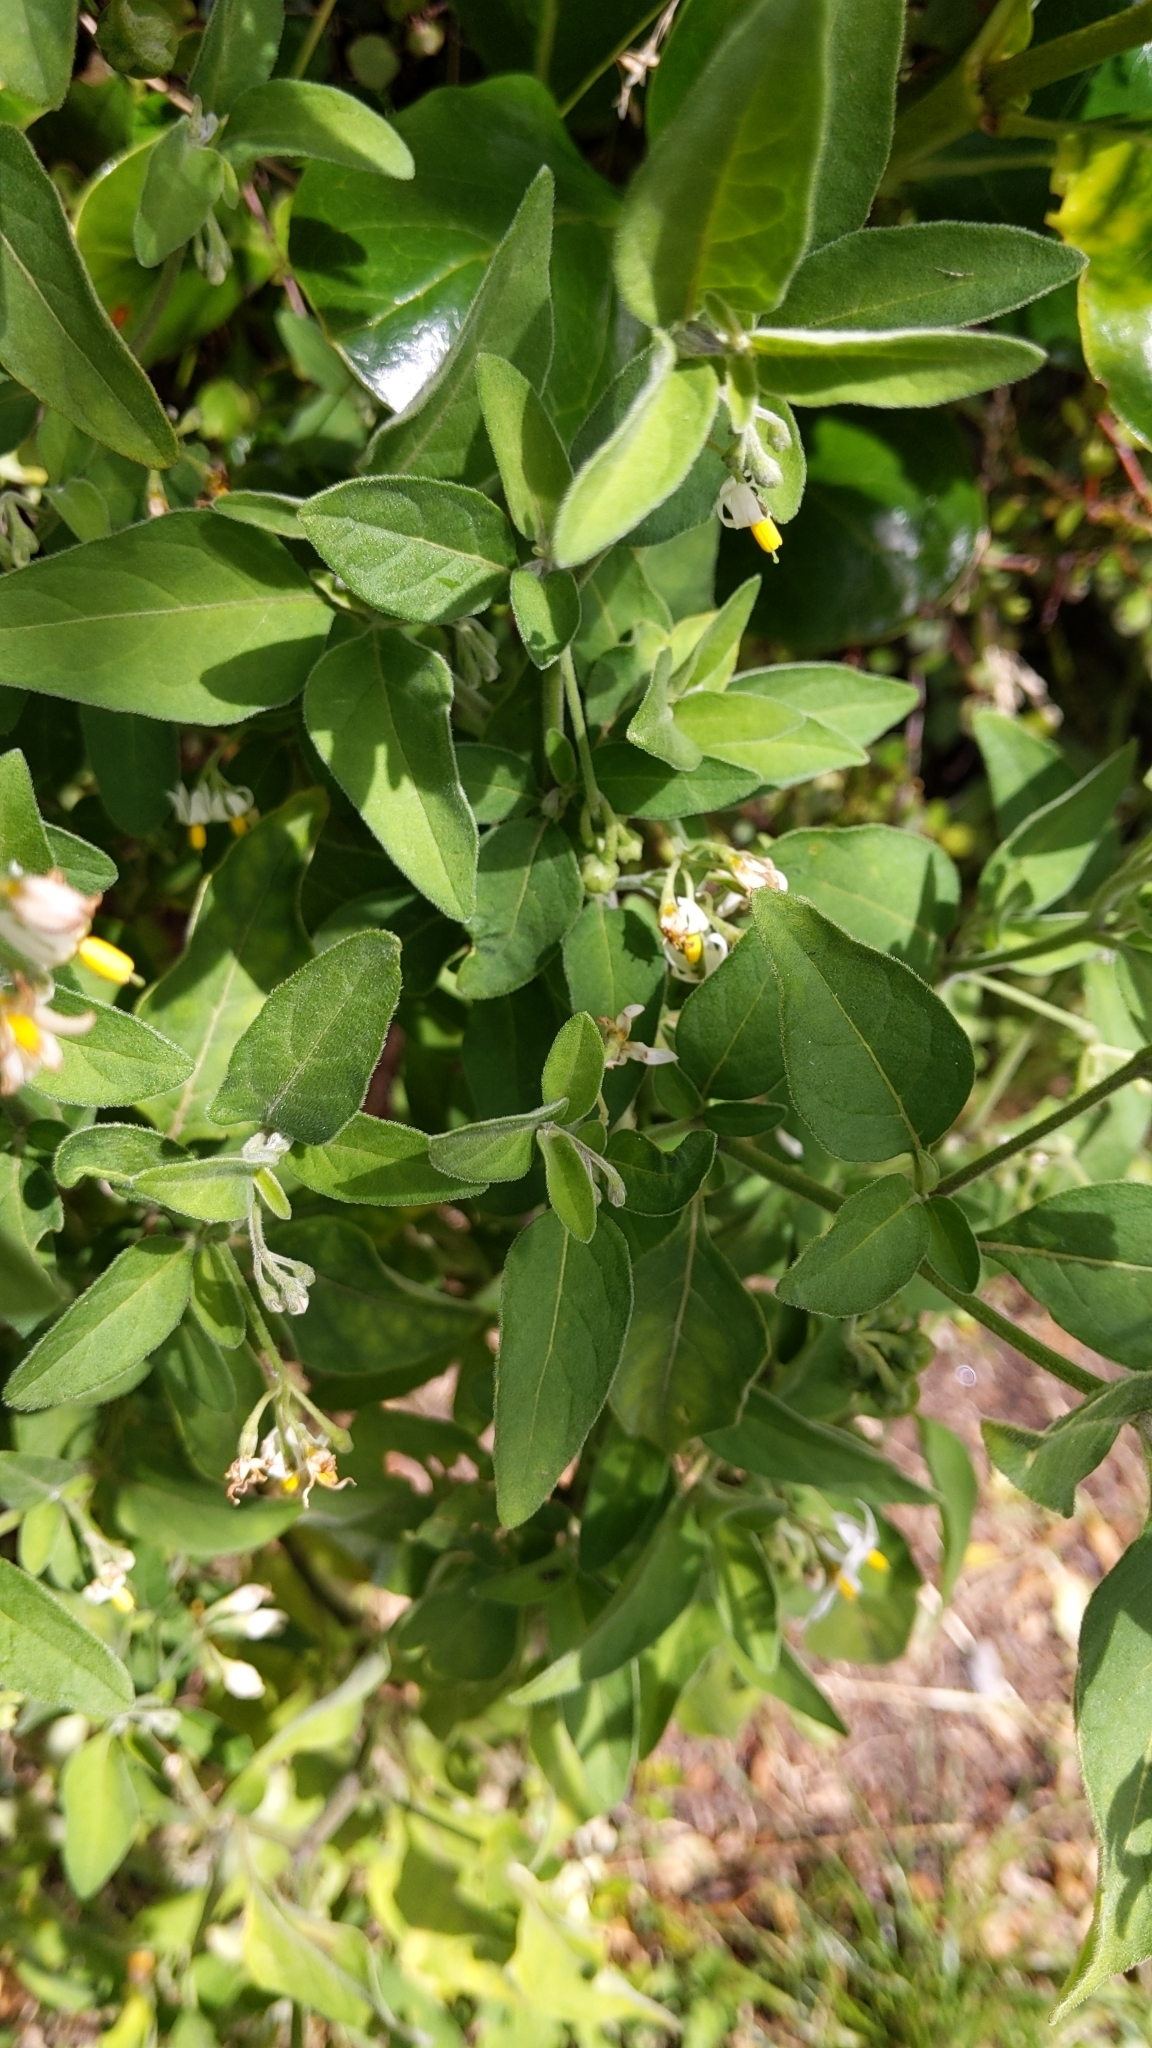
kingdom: Plantae
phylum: Tracheophyta
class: Magnoliopsida
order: Solanales
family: Solanaceae
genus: Solanum
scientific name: Solanum chenopodioides
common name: Tall nightshade
